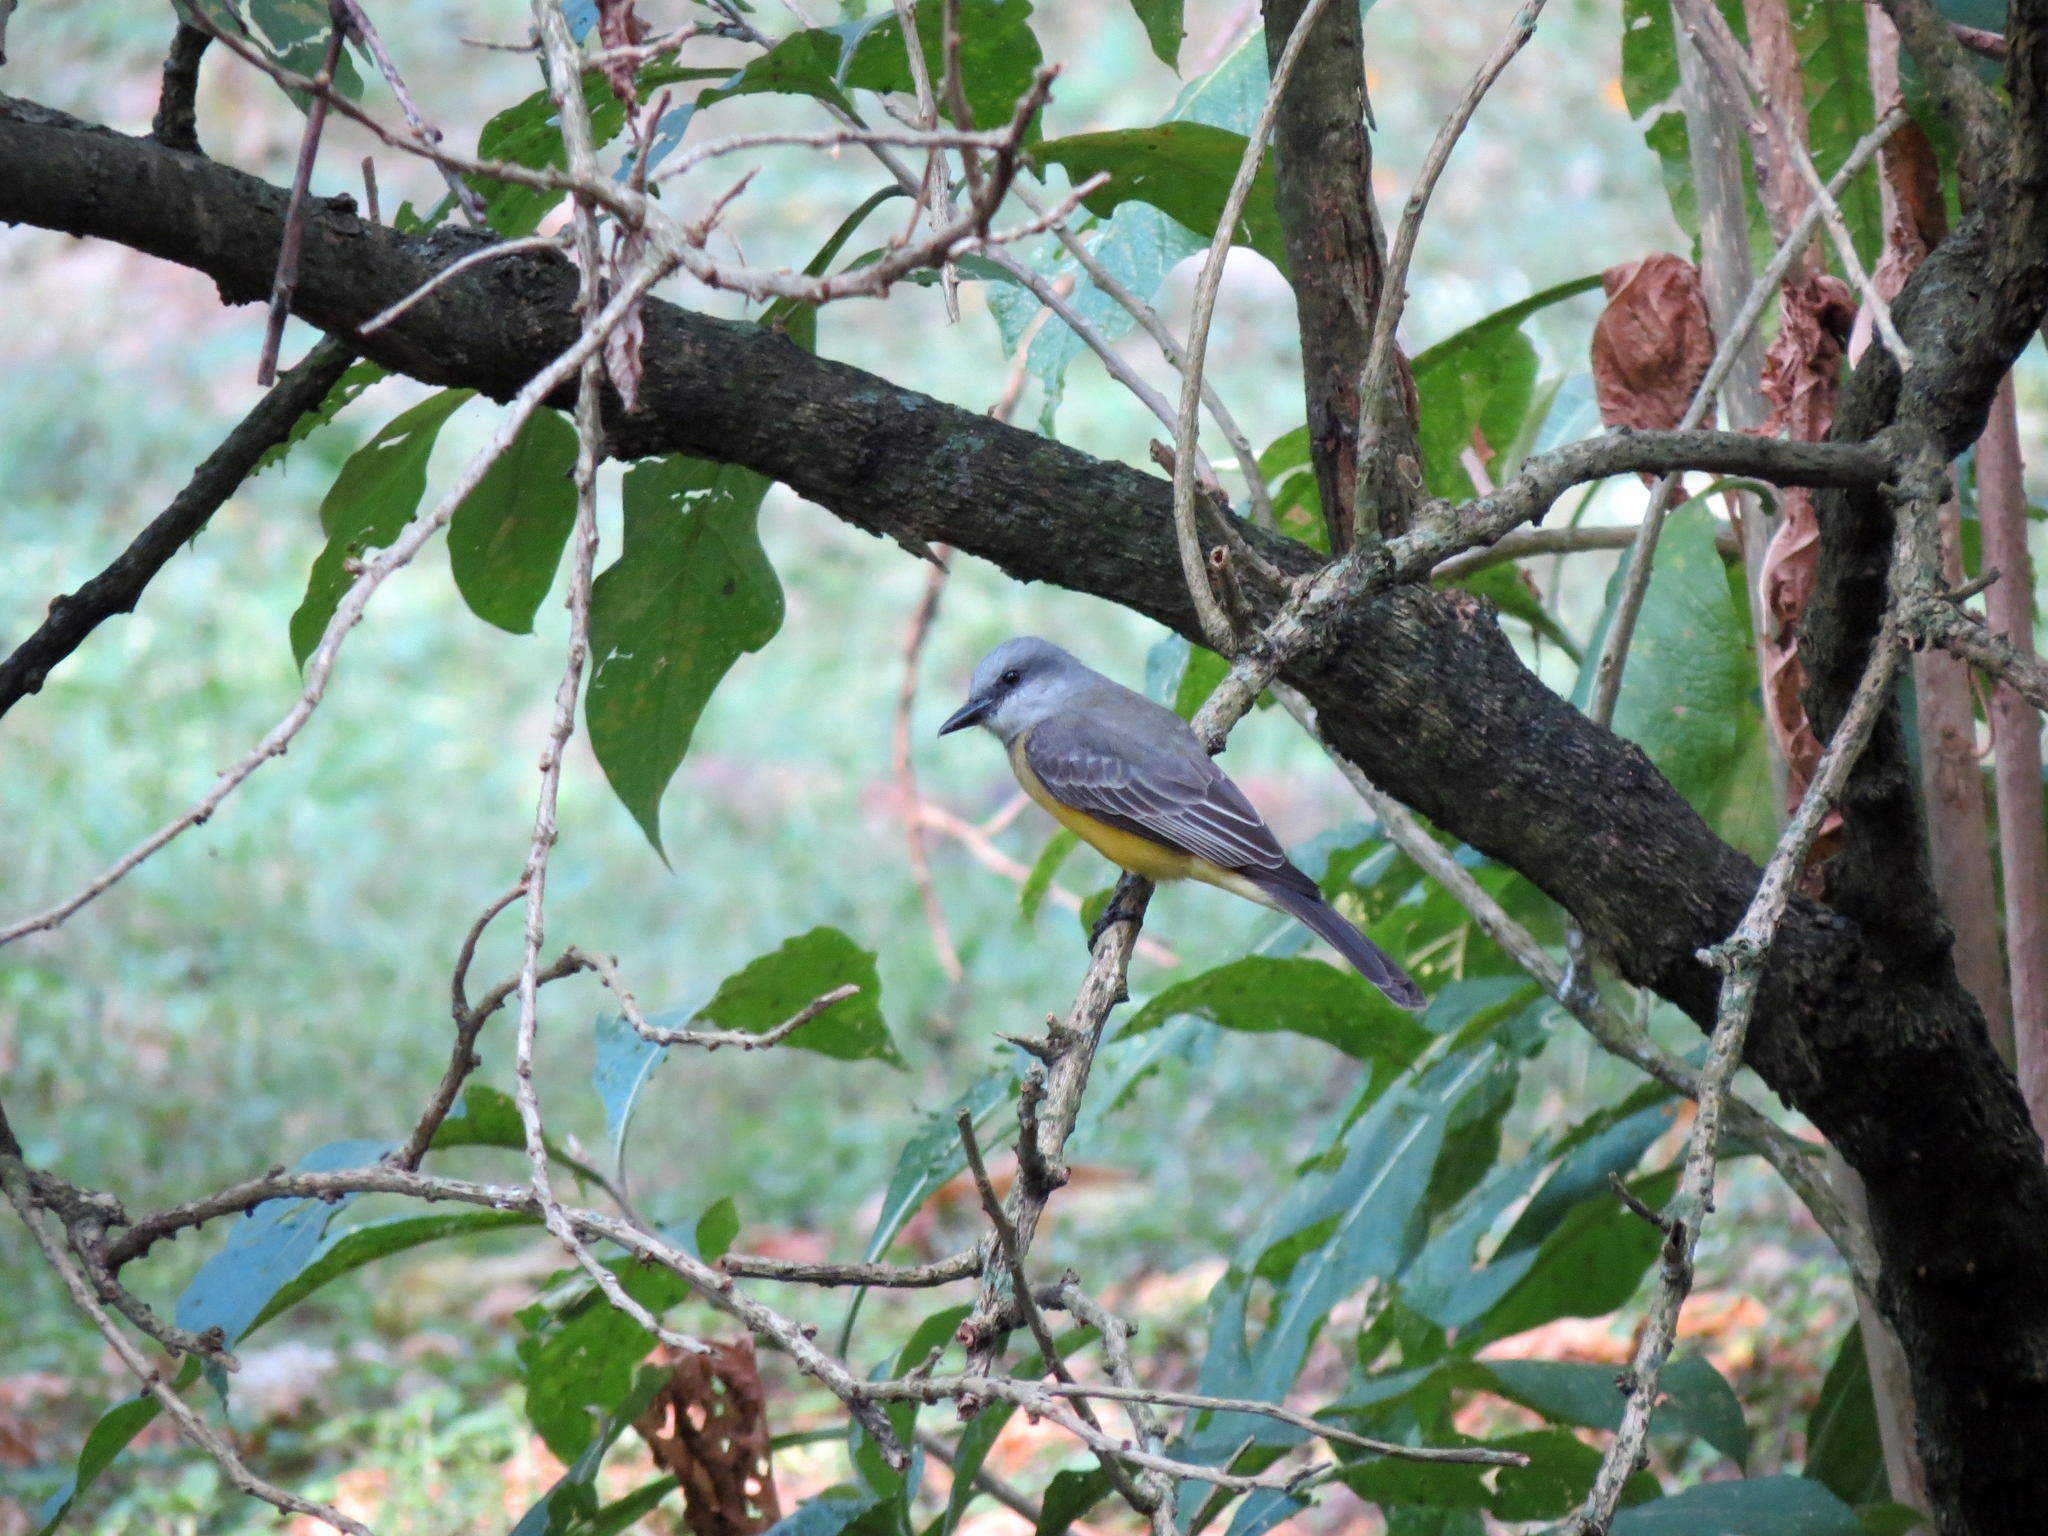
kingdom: Animalia
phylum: Chordata
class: Aves
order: Passeriformes
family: Tyrannidae
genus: Tyrannus
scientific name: Tyrannus melancholicus
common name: Tropical kingbird
